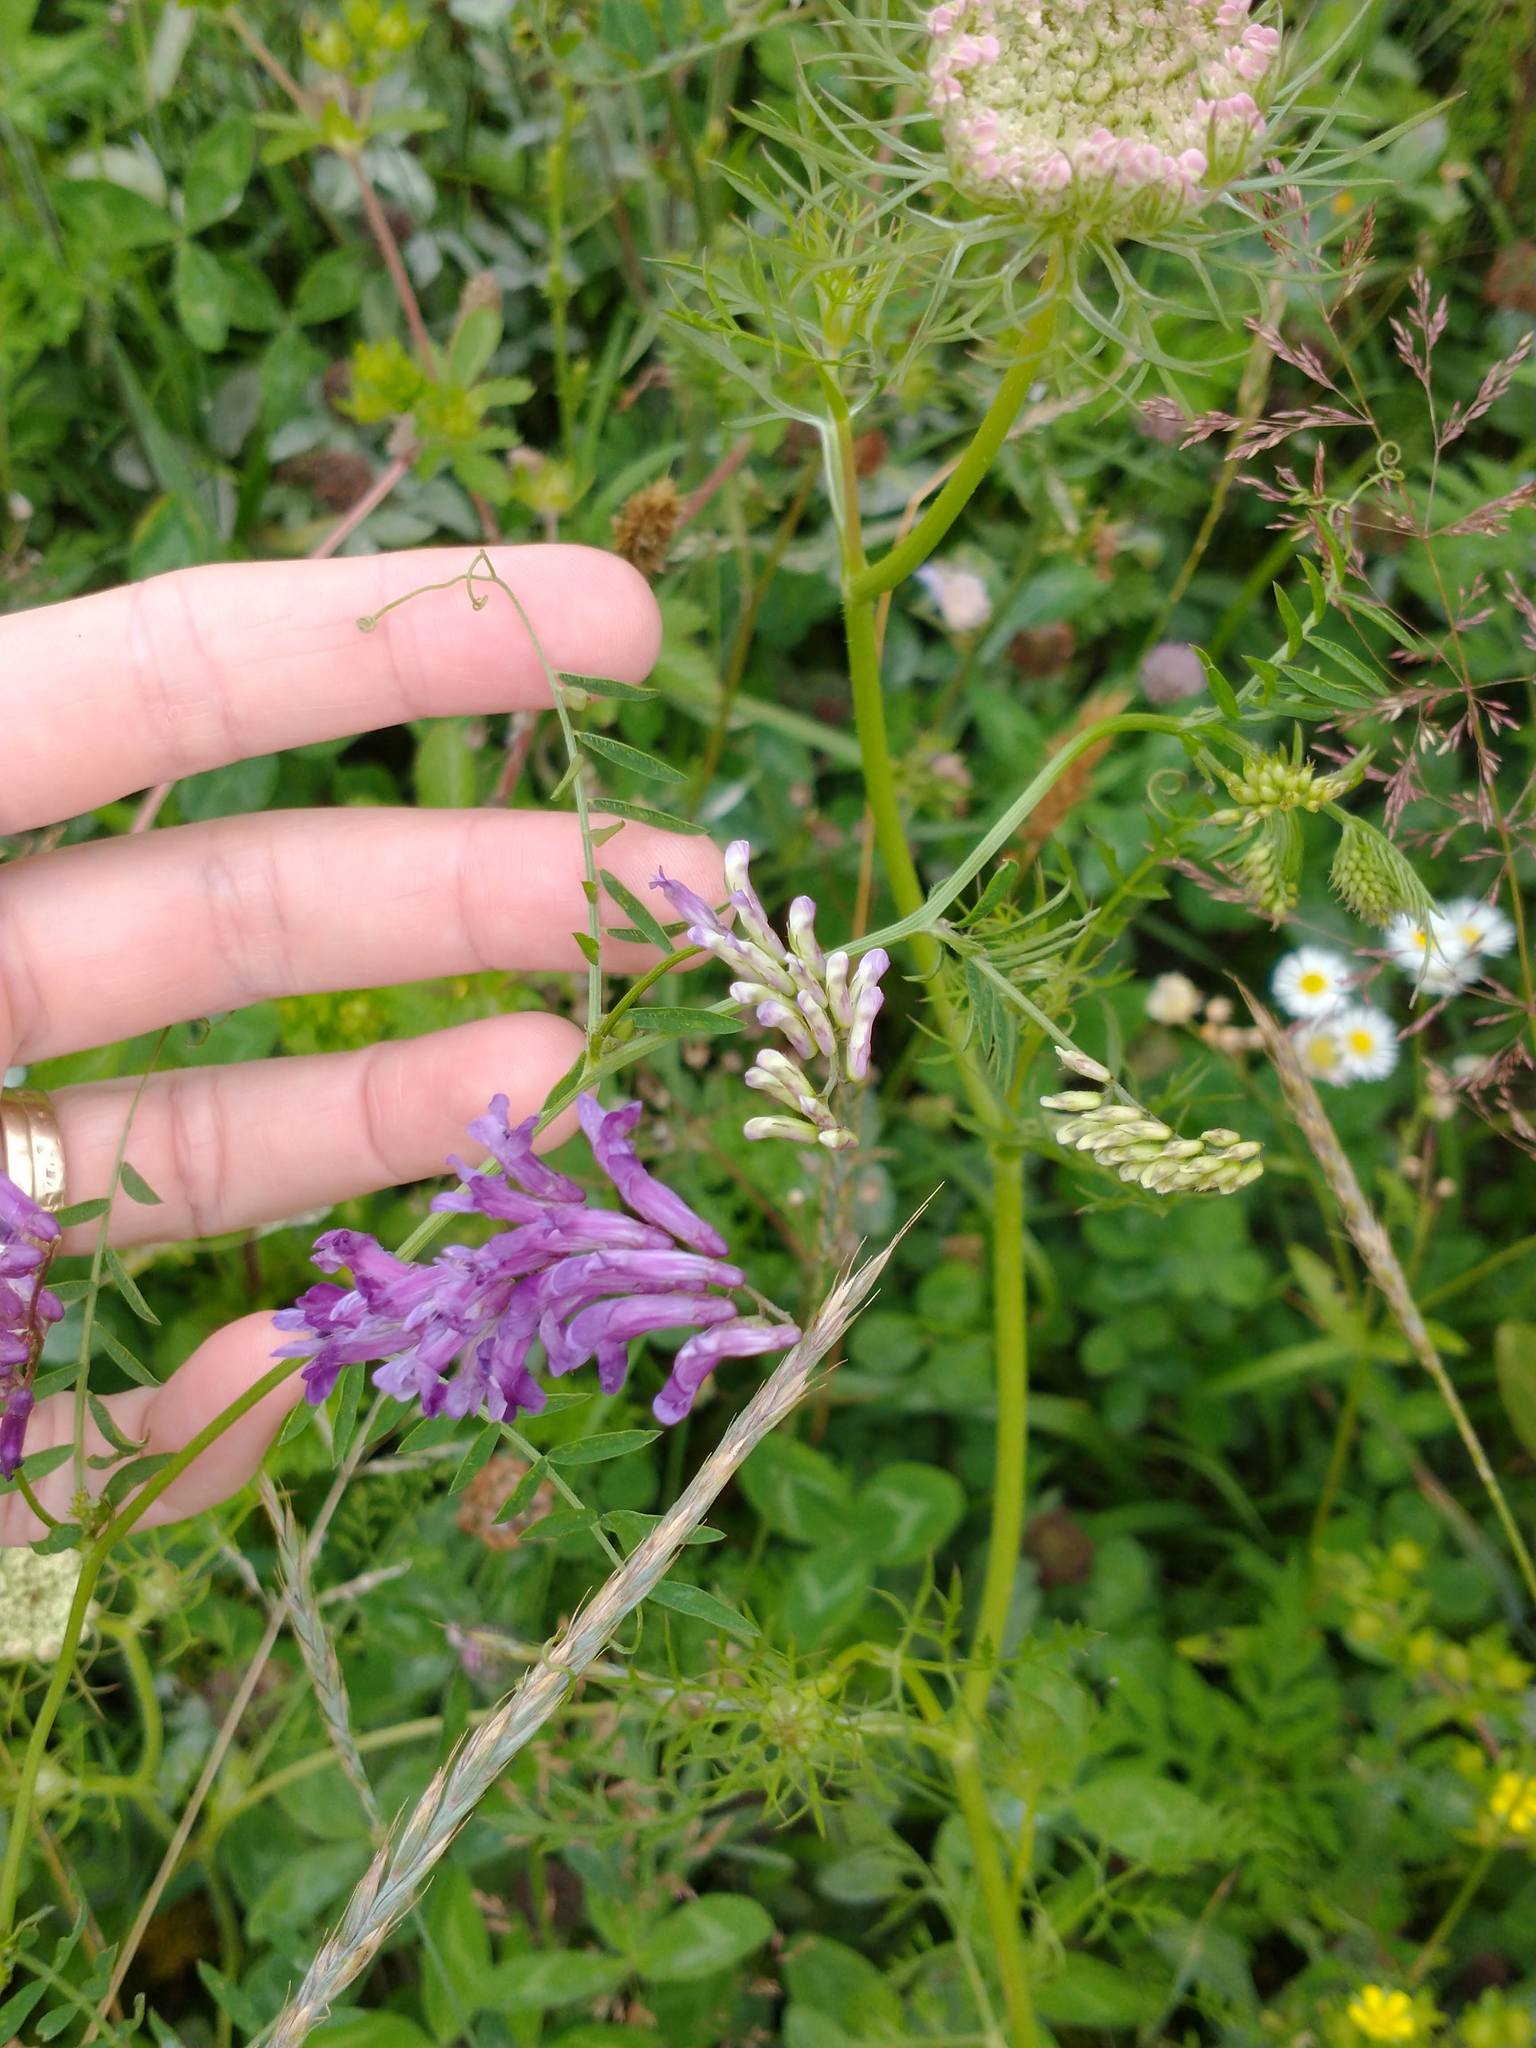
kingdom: Plantae
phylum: Tracheophyta
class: Magnoliopsida
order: Fabales
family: Fabaceae
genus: Vicia
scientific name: Vicia villosa
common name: Fodder vetch
